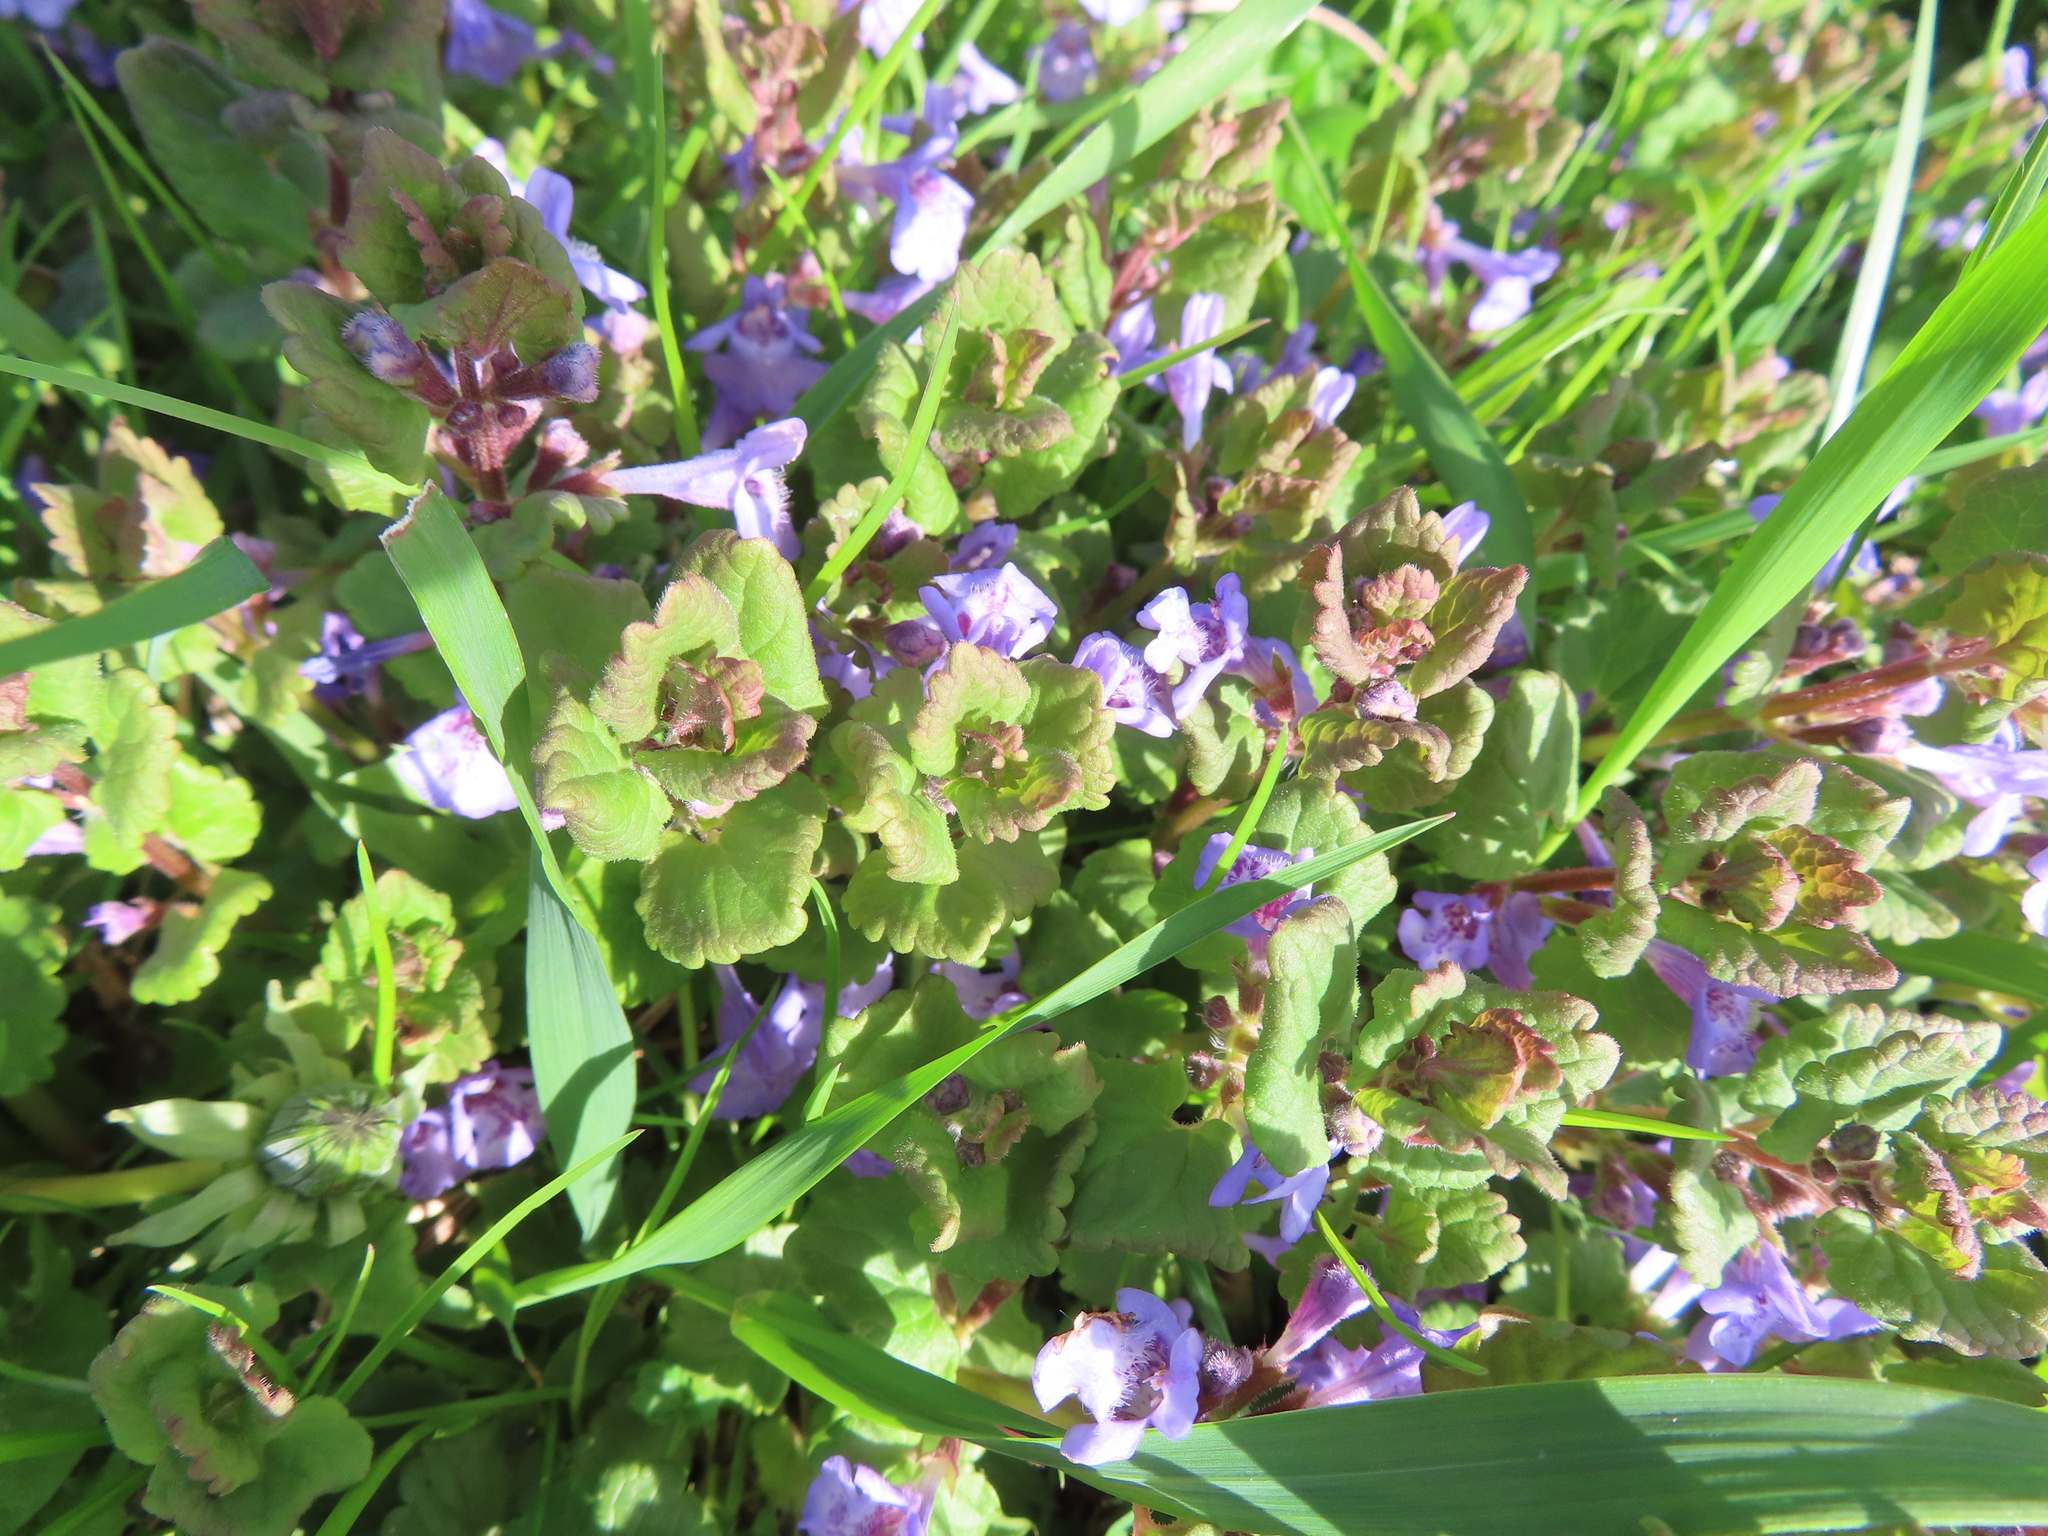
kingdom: Plantae
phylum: Tracheophyta
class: Magnoliopsida
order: Lamiales
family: Lamiaceae
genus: Glechoma
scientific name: Glechoma hederacea
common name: Ground ivy
